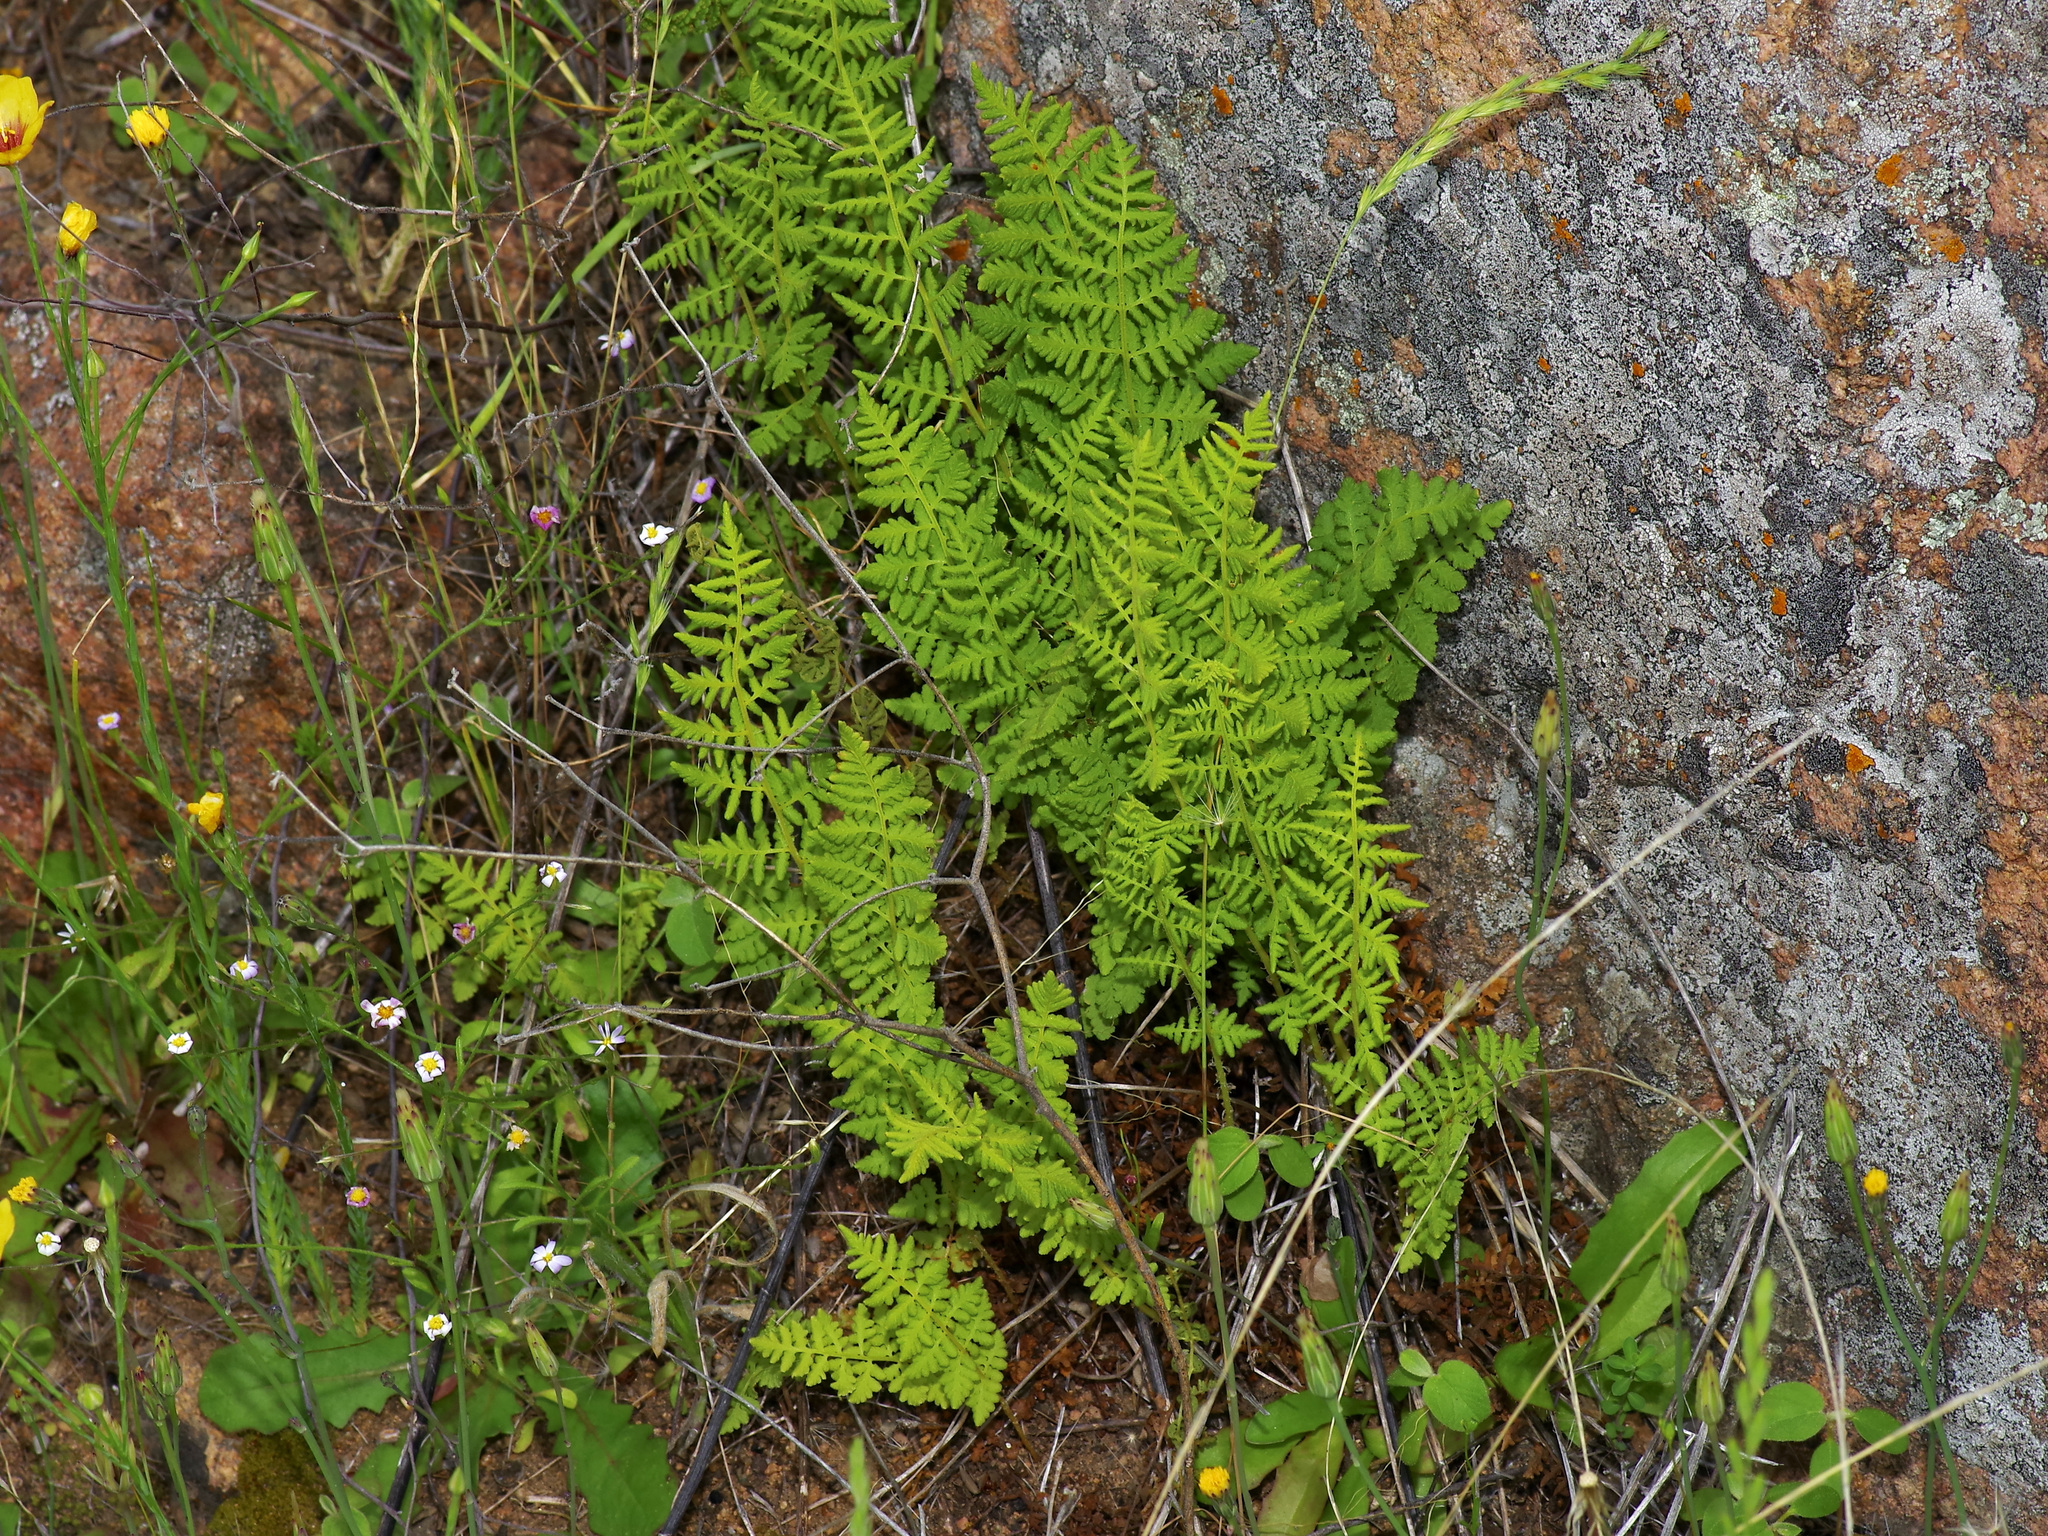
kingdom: Plantae
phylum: Tracheophyta
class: Polypodiopsida
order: Polypodiales
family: Woodsiaceae
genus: Physematium
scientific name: Physematium obtusum
